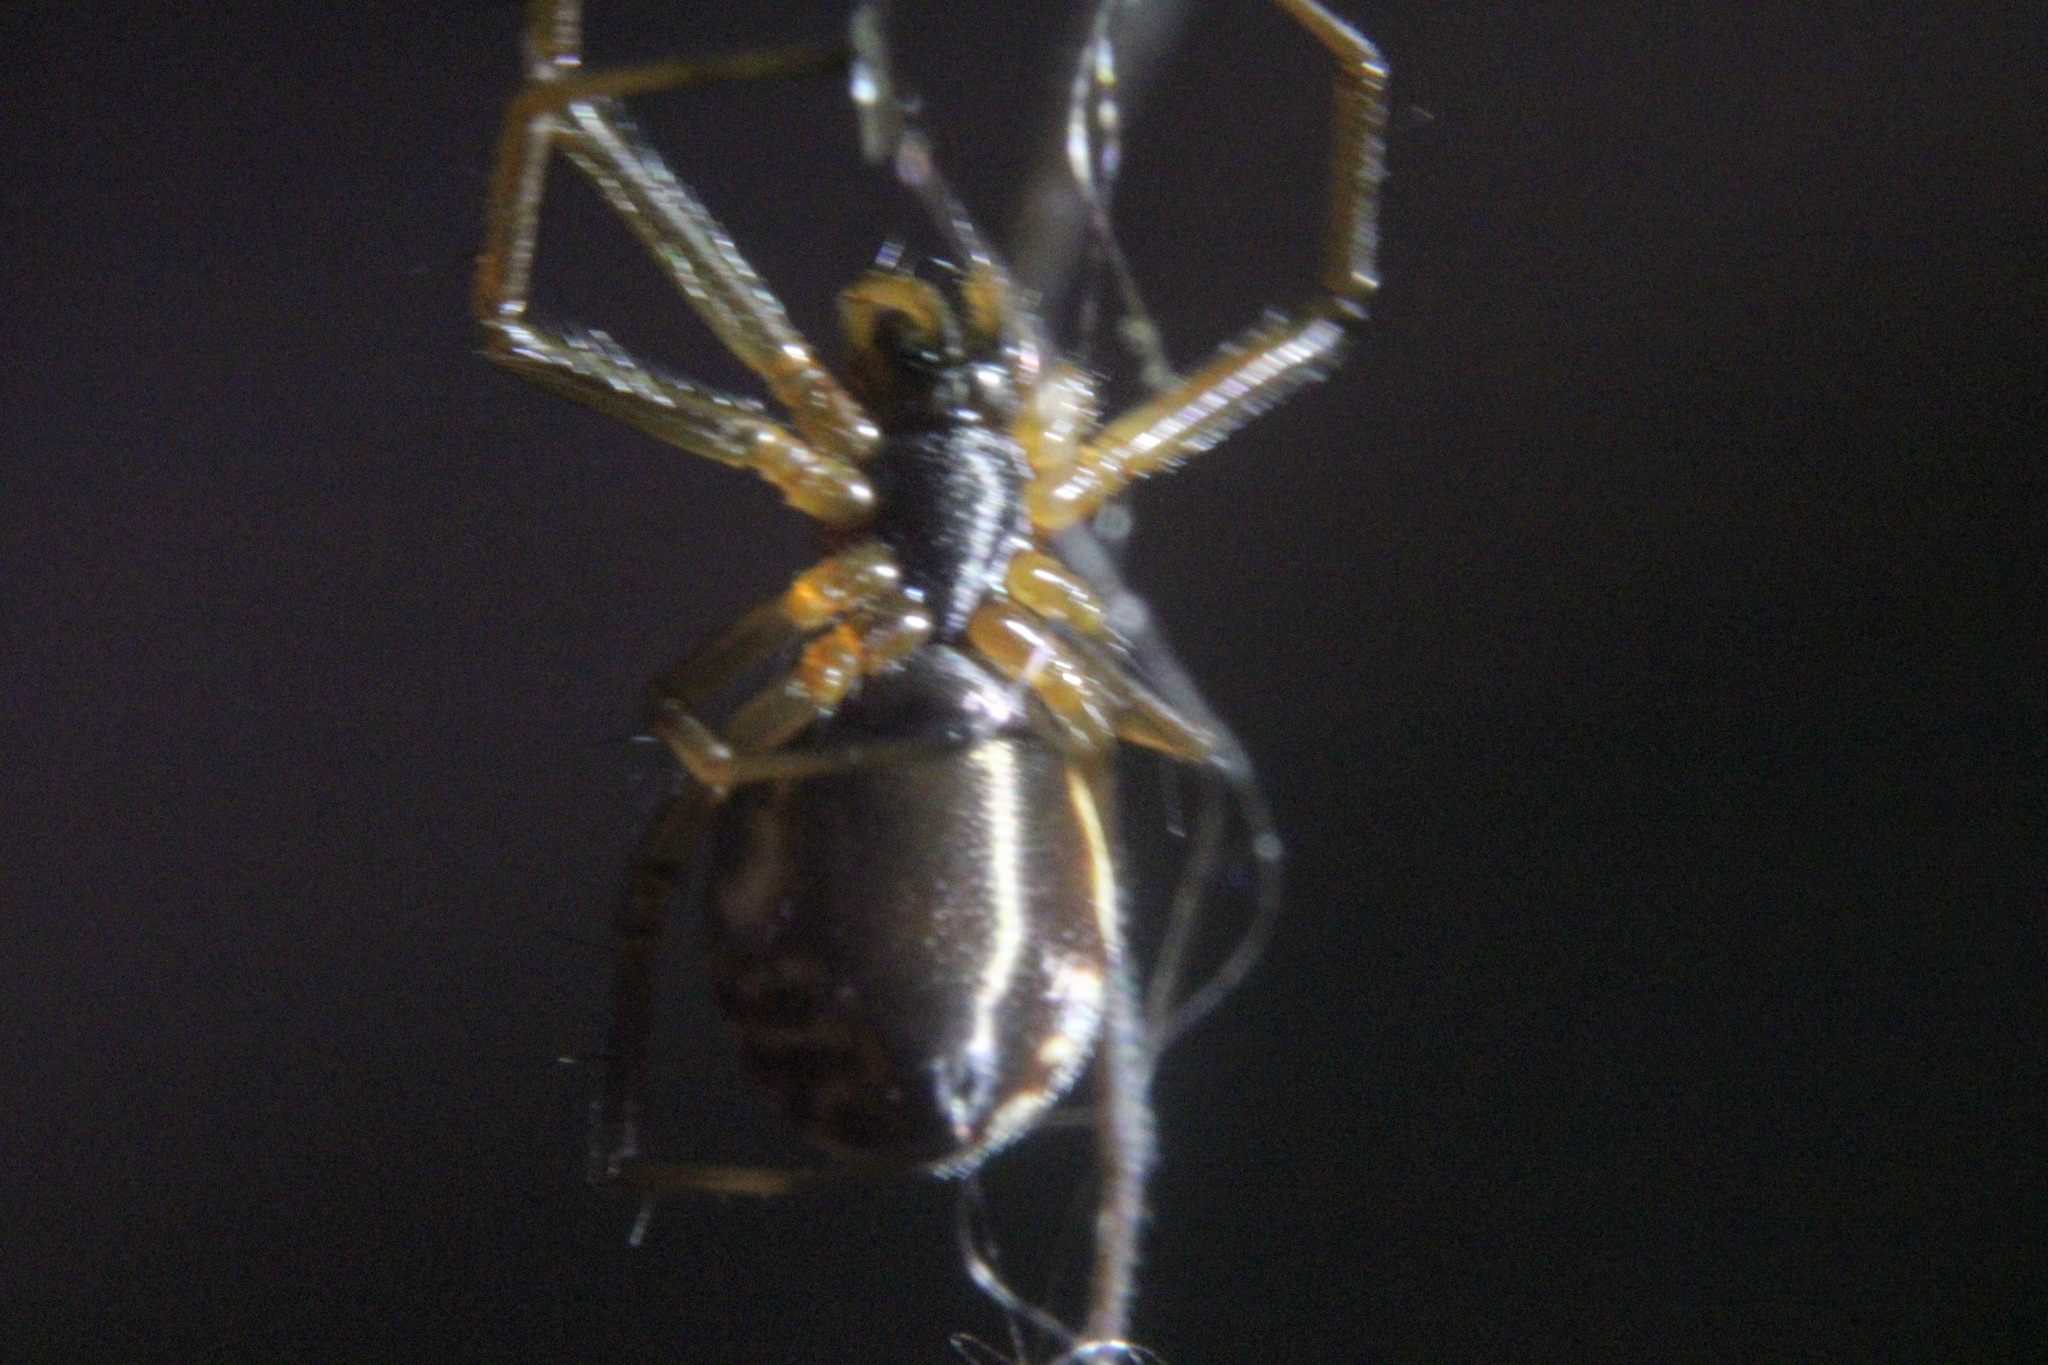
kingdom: Animalia
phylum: Arthropoda
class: Arachnida
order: Araneae
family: Linyphiidae
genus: Frontinella
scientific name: Frontinella pyramitela
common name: Bowl-and-doily spider
